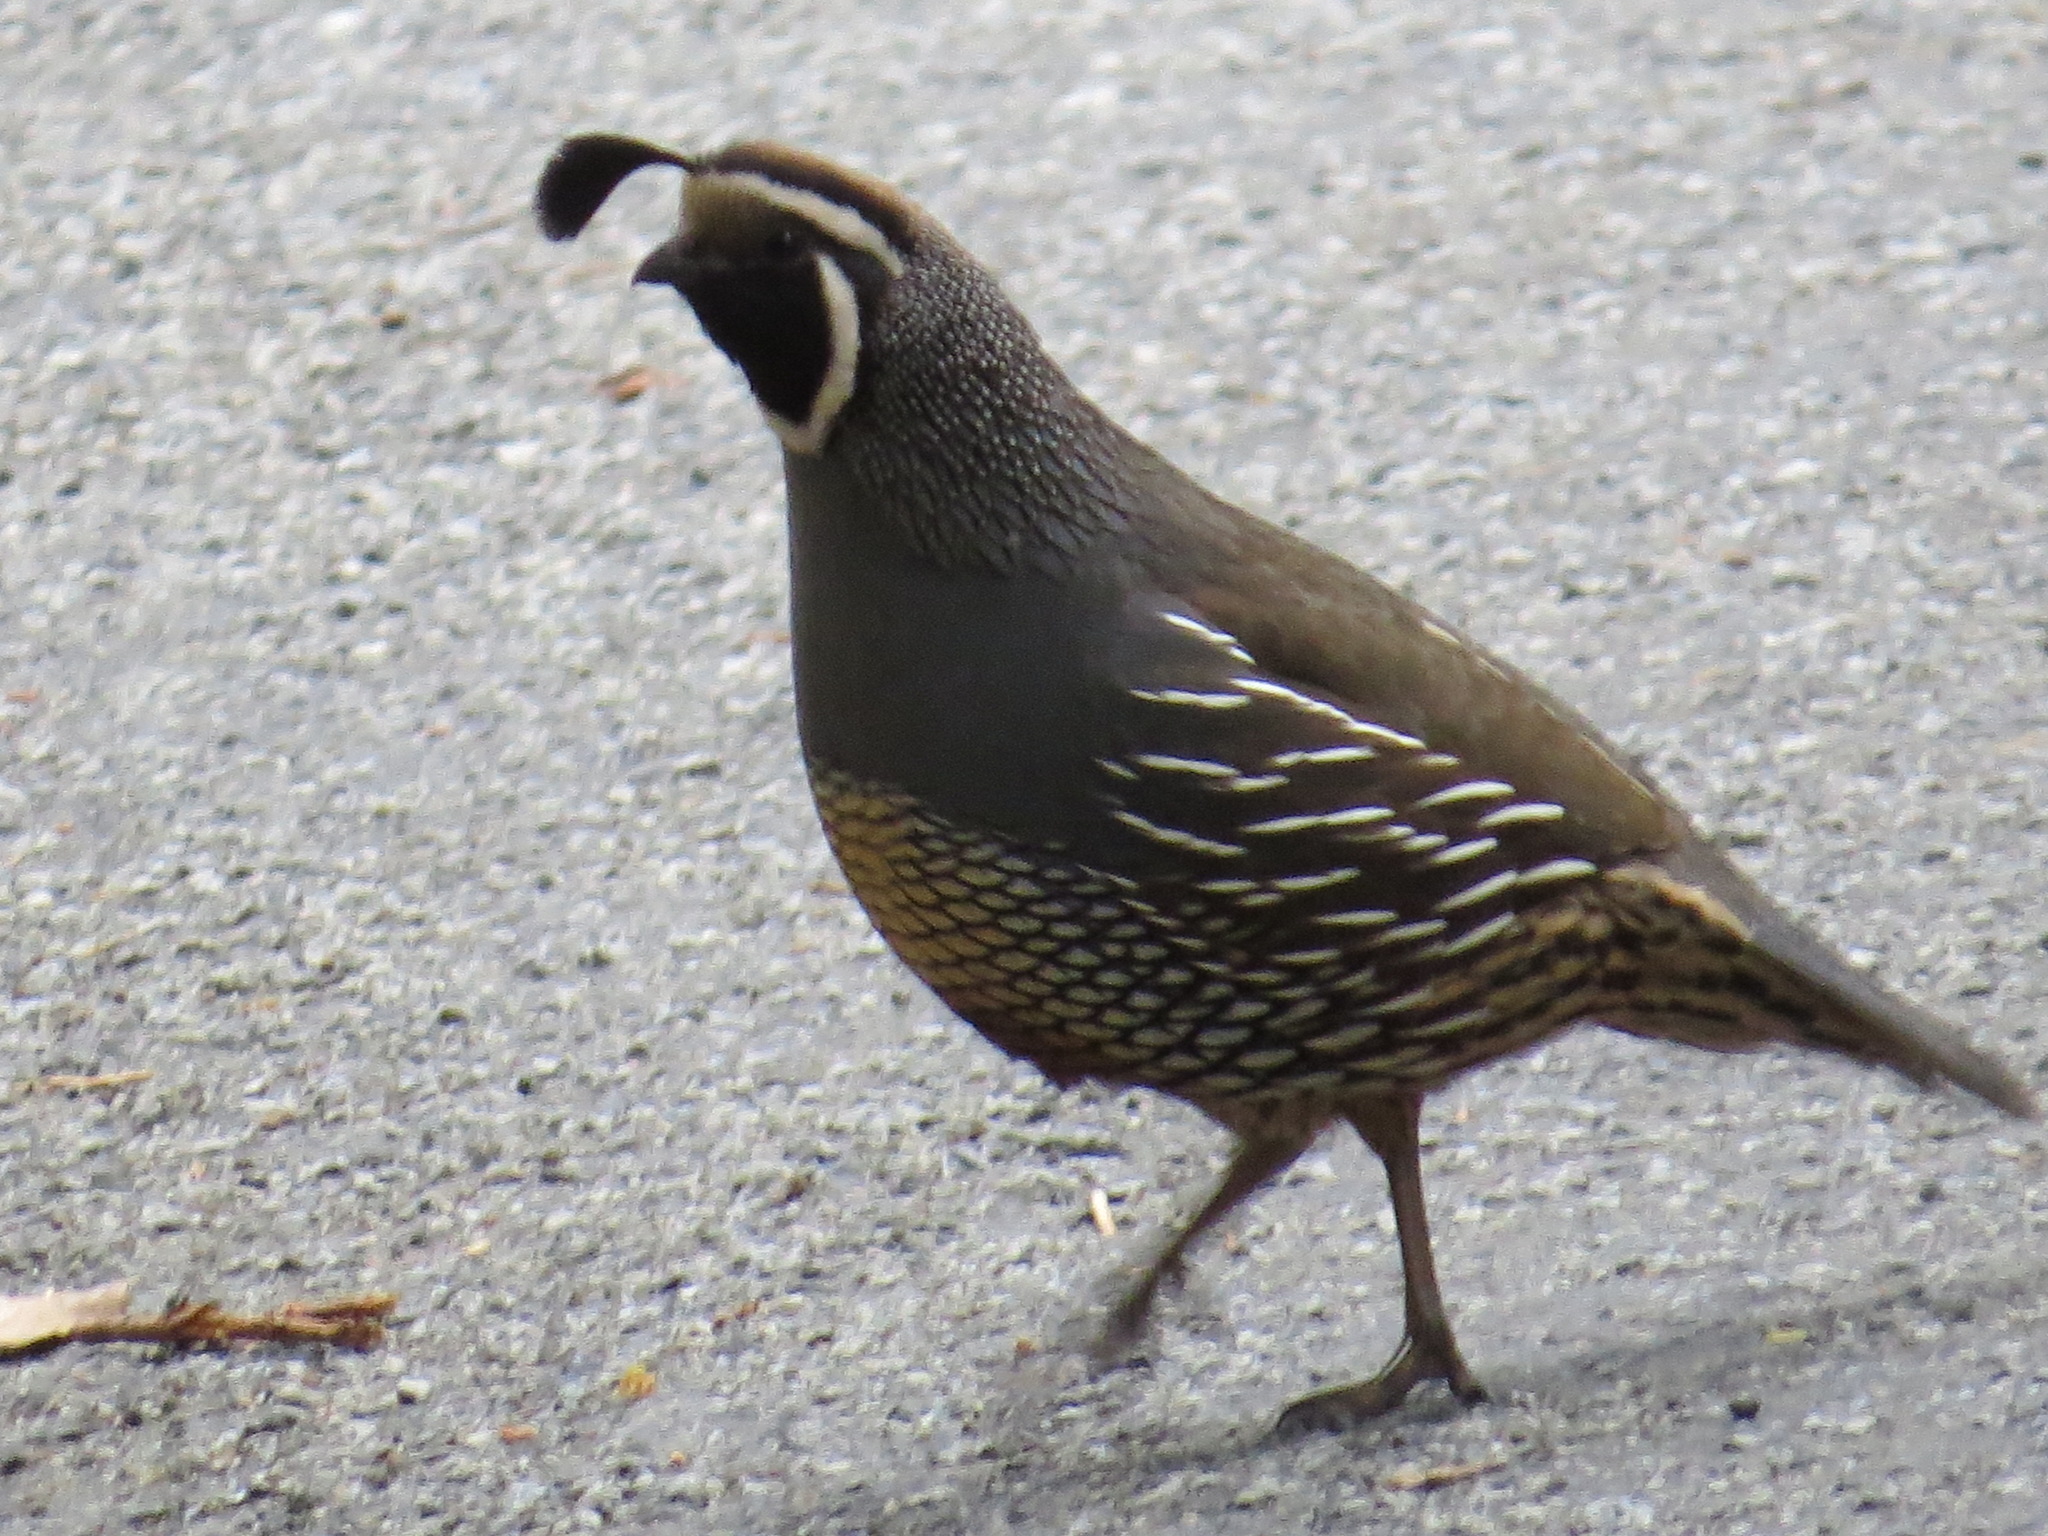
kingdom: Animalia
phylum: Chordata
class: Aves
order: Galliformes
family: Odontophoridae
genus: Callipepla
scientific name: Callipepla californica
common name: California quail
